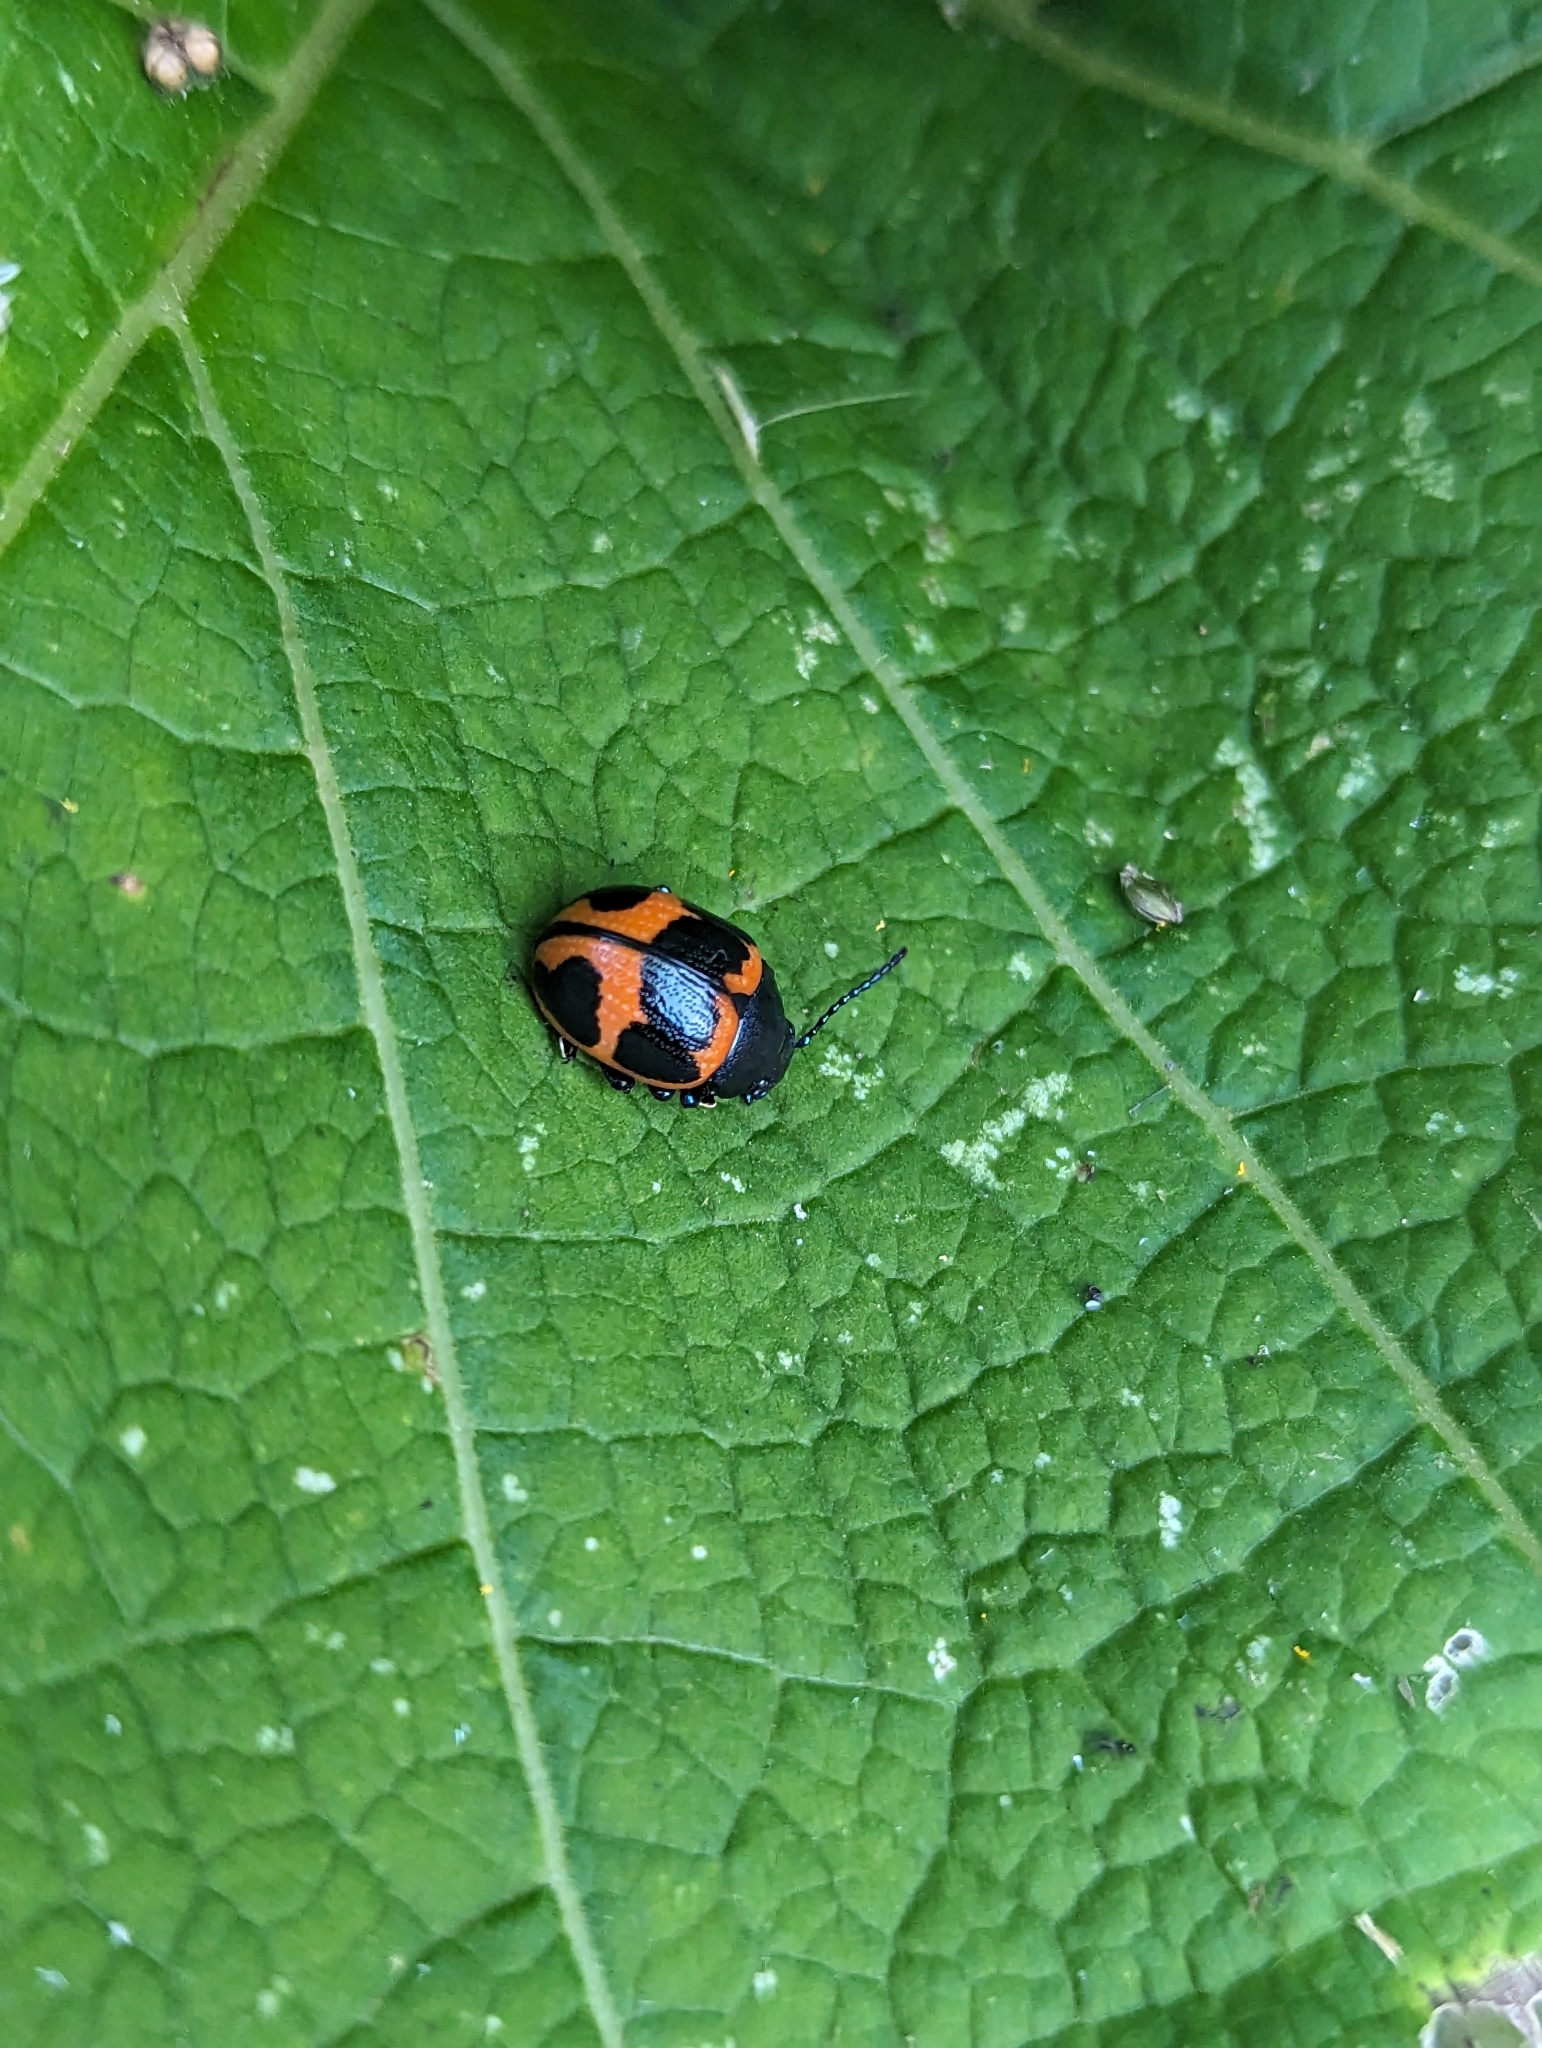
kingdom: Animalia
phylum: Arthropoda
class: Insecta
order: Coleoptera
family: Chrysomelidae
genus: Labidomera
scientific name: Labidomera clivicollis
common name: Swamp milkweed leaf beetle
